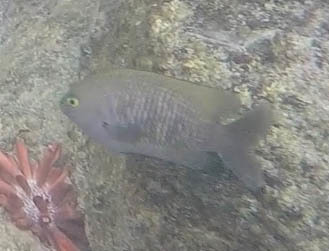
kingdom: Animalia
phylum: Chordata
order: Perciformes
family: Pomacentridae
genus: Stegastes
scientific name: Stegastes fasciolatus
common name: Pacific gregory
